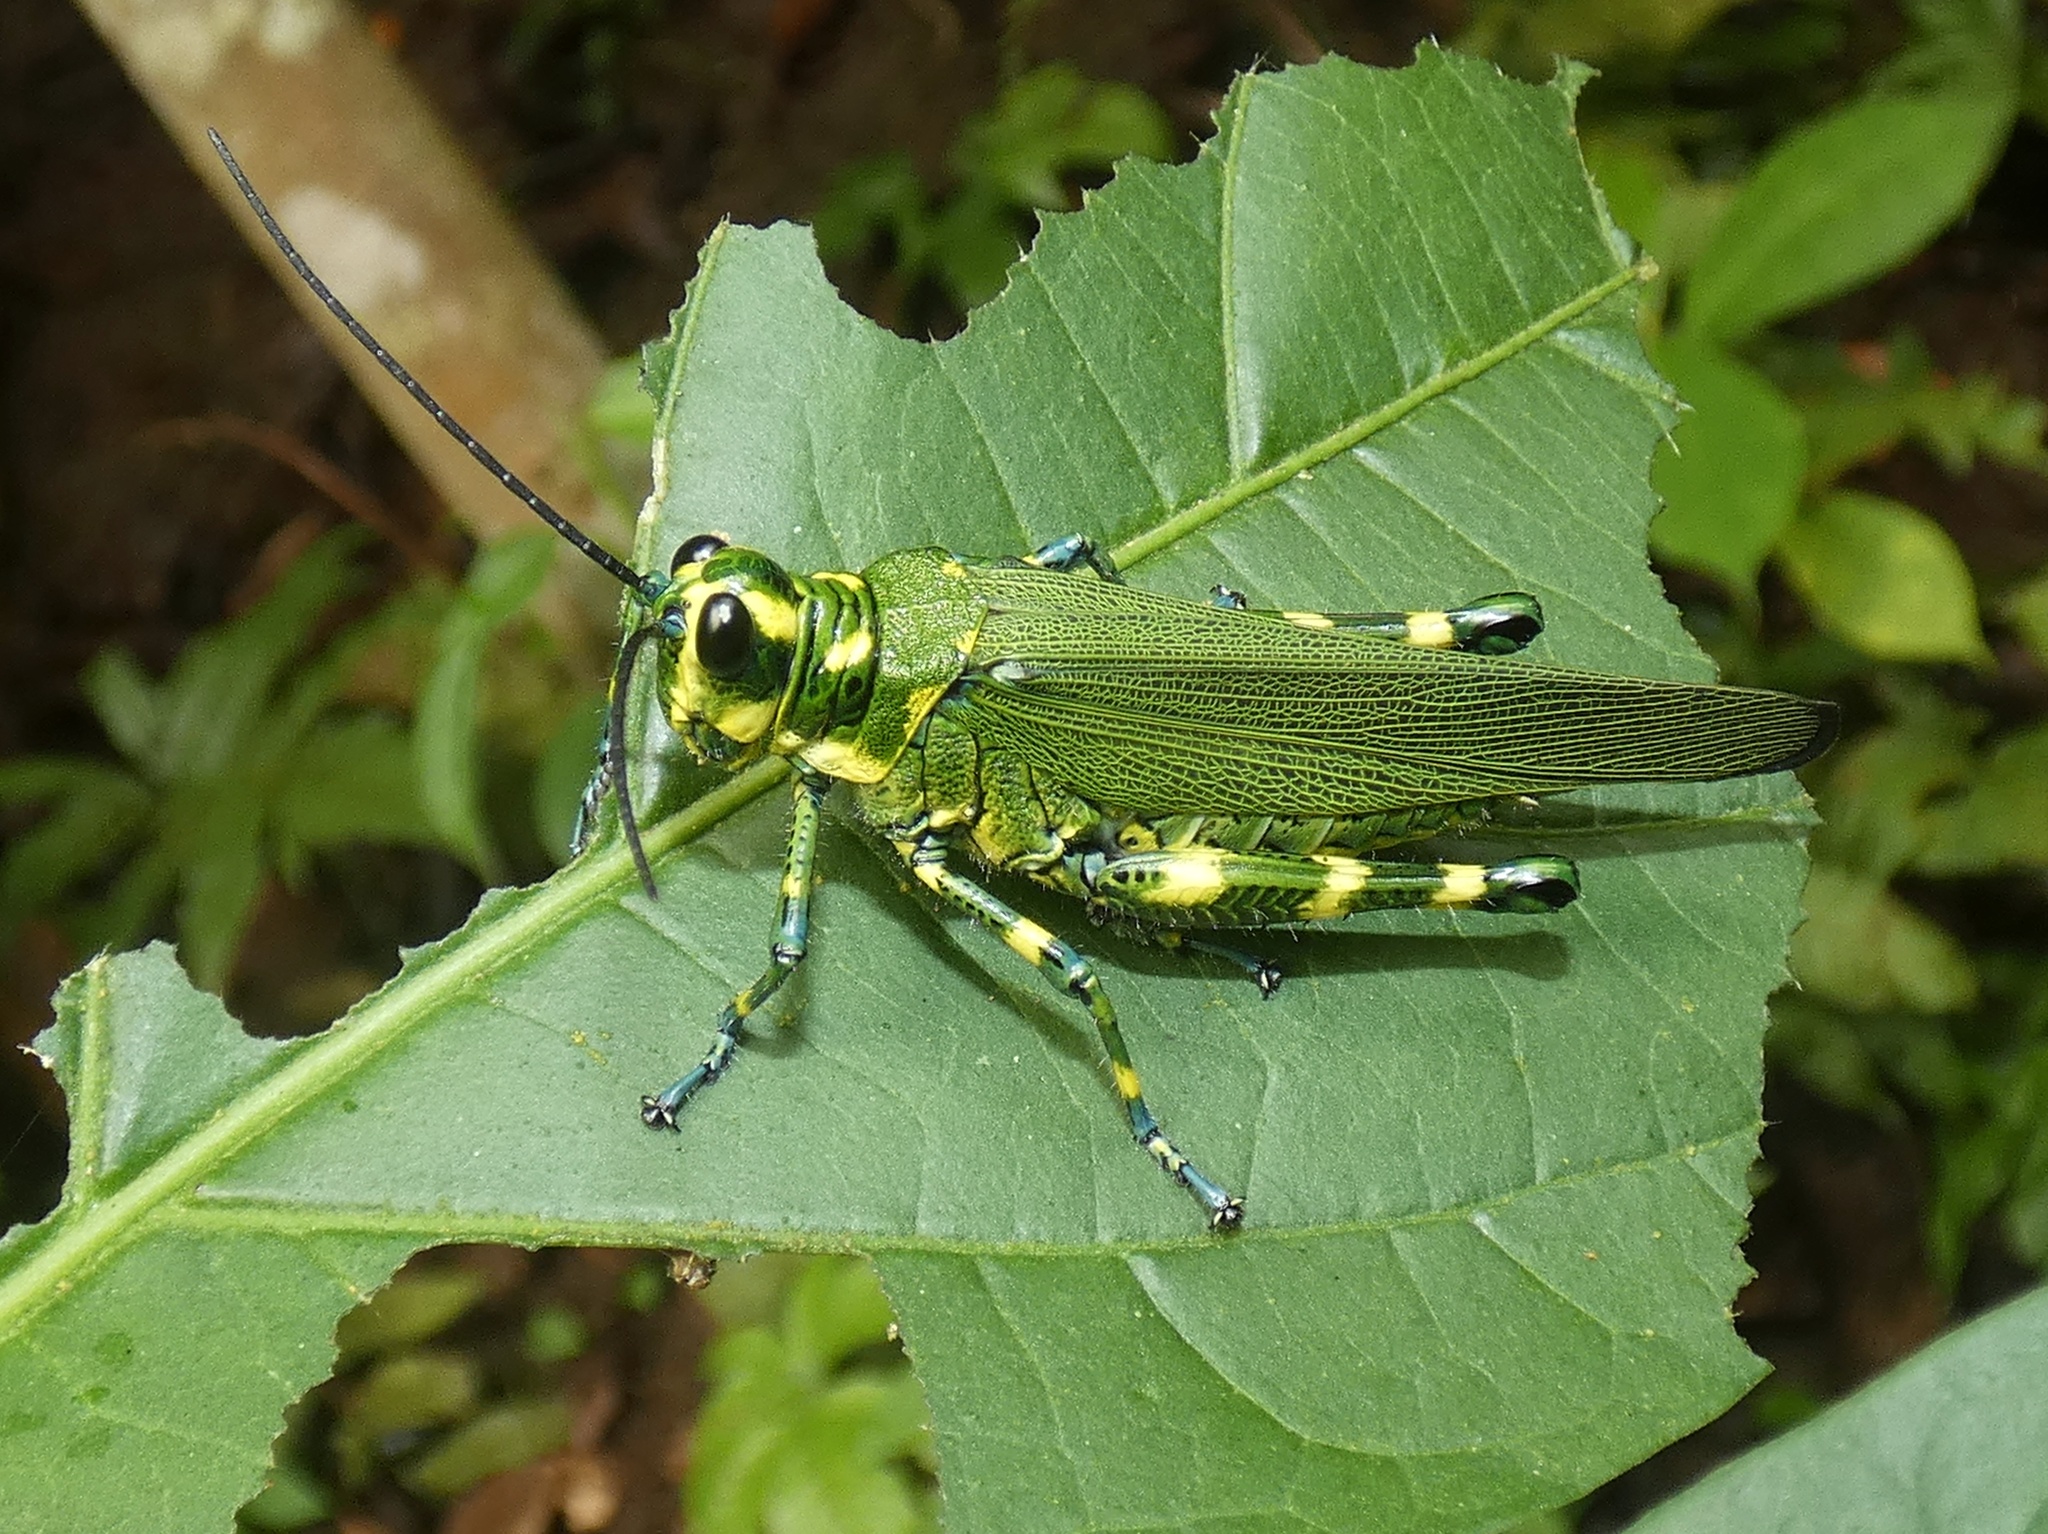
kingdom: Animalia
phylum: Arthropoda
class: Insecta
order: Orthoptera
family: Romaleidae
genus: Chromacris
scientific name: Chromacris psittacus
